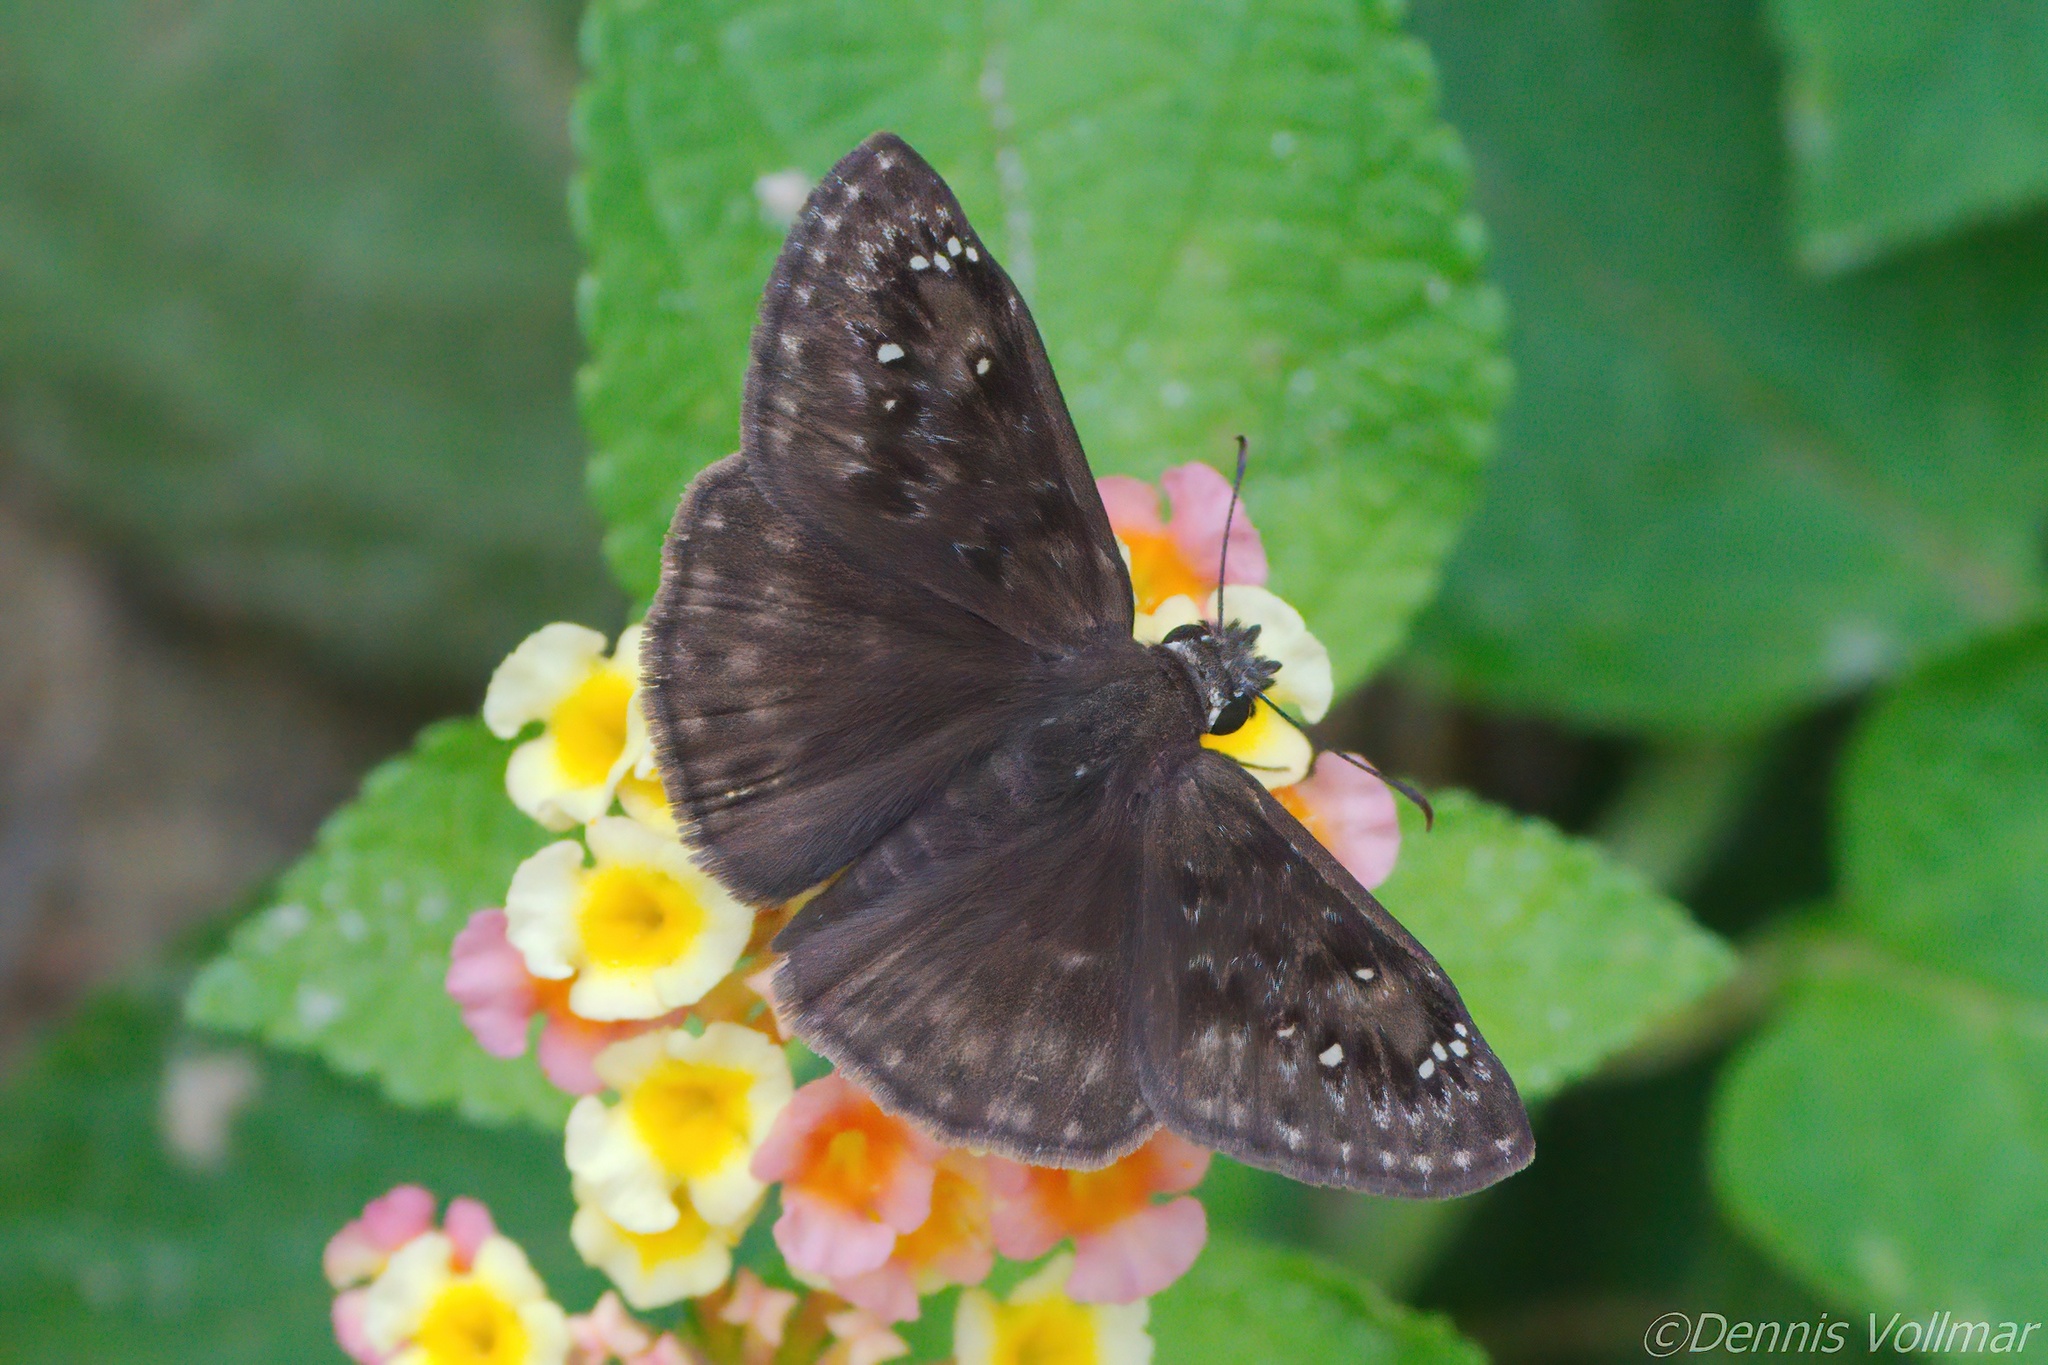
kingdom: Animalia
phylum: Arthropoda
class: Insecta
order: Lepidoptera
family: Hesperiidae
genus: Erynnis
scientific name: Erynnis horatius
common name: Horace's duskywing
